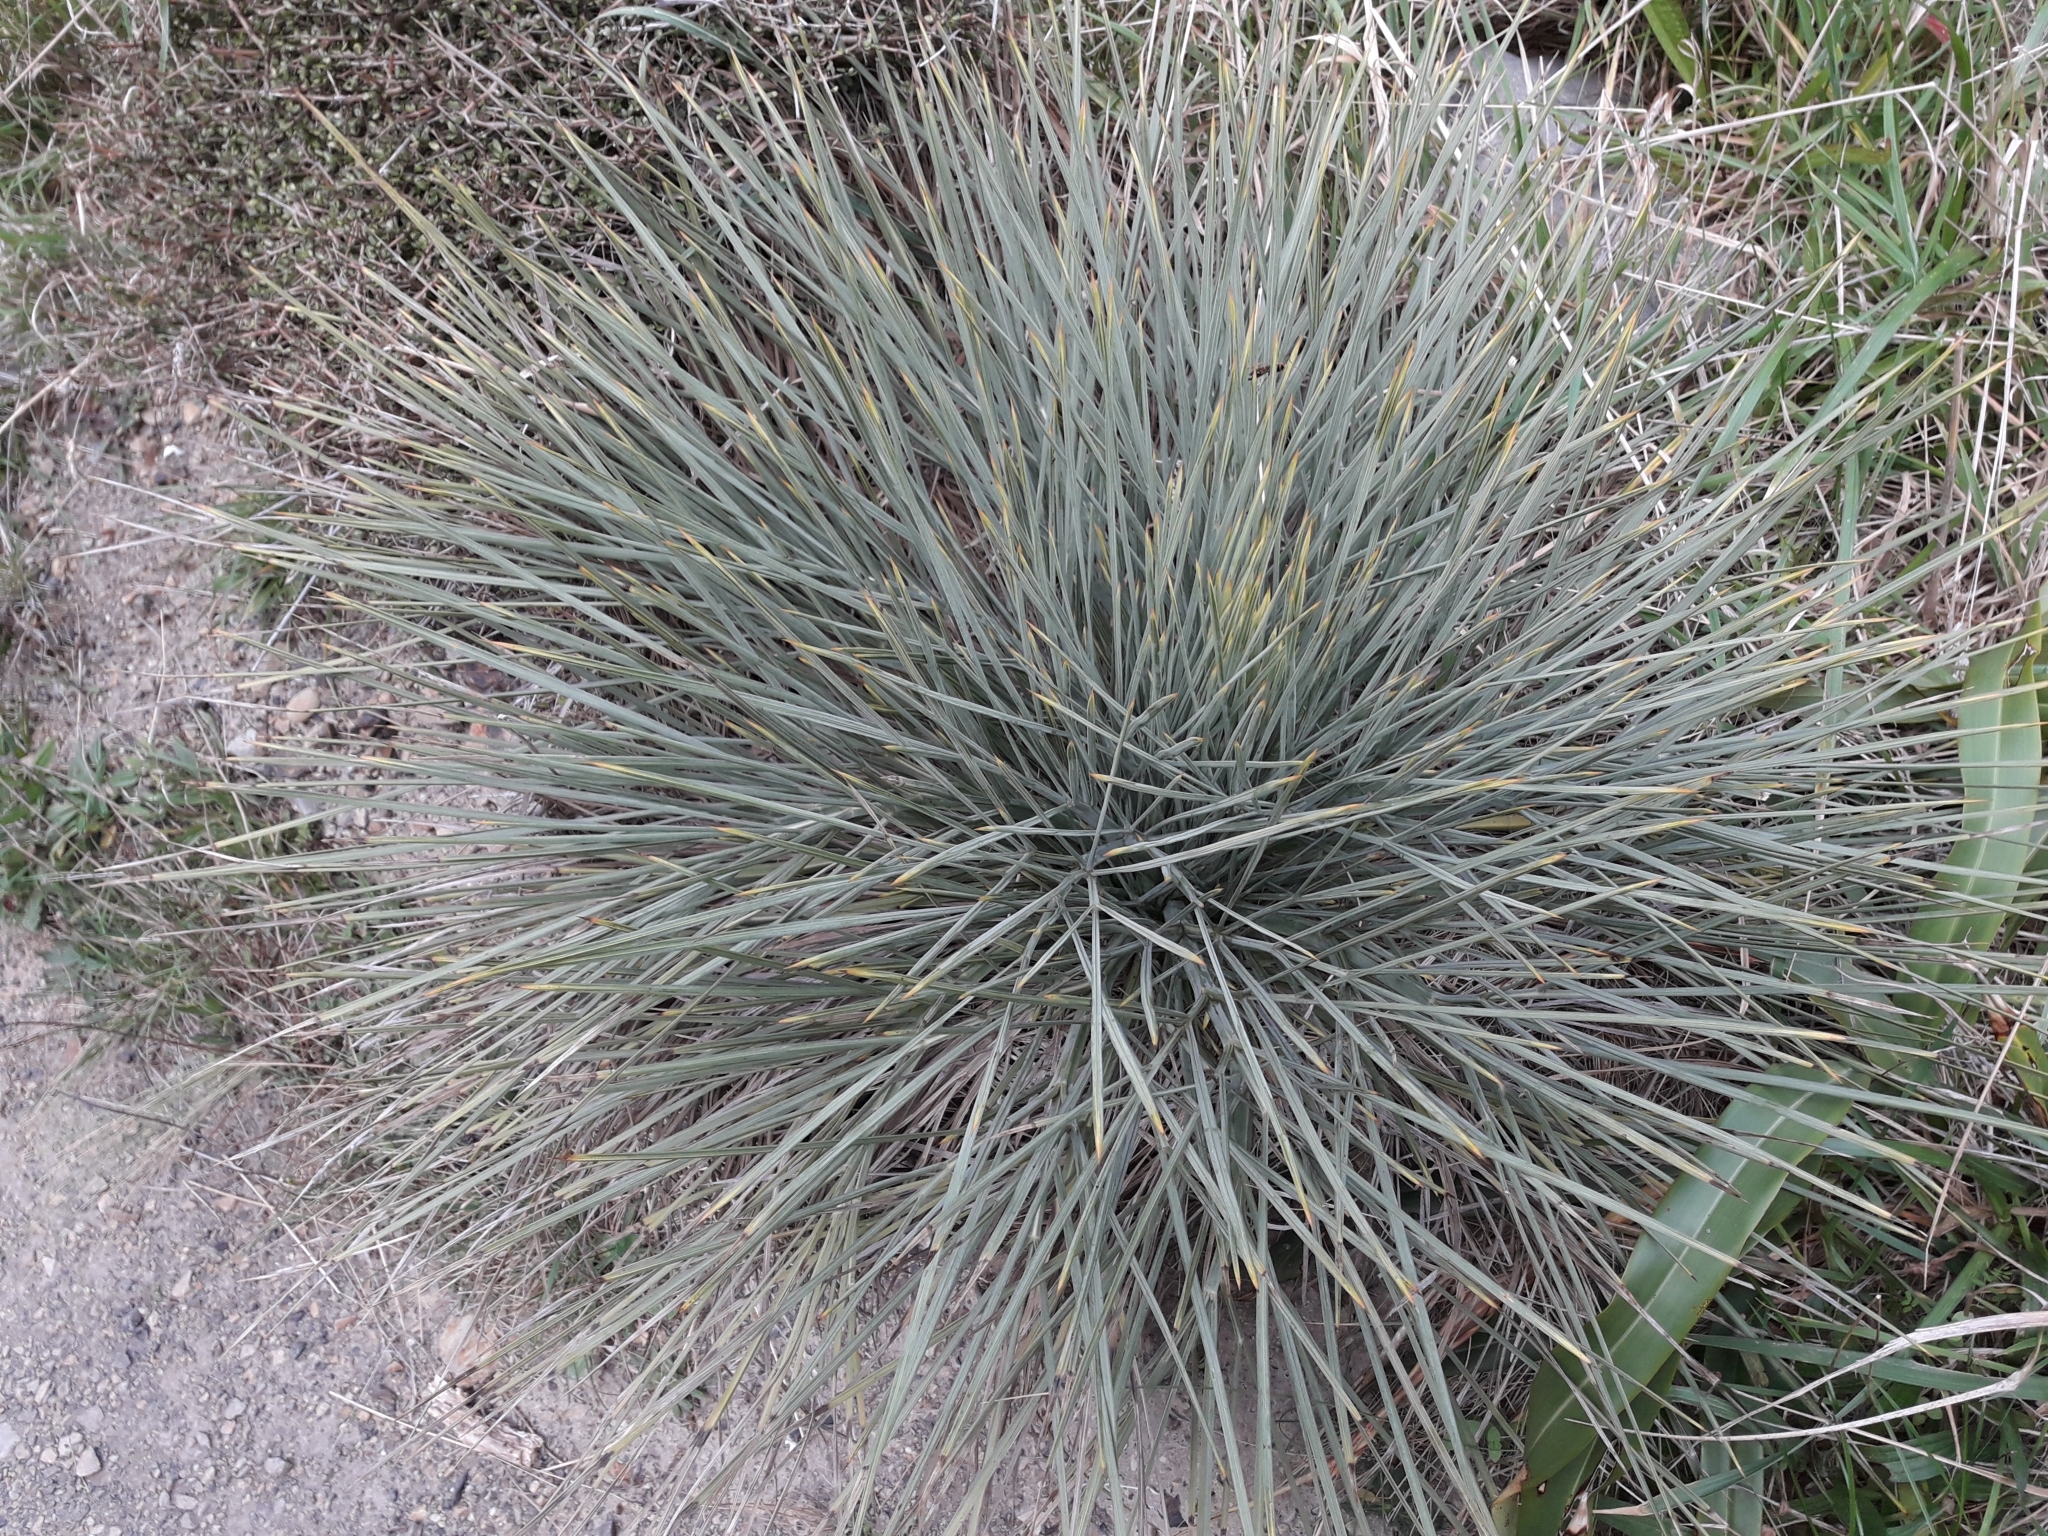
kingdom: Plantae
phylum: Tracheophyta
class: Magnoliopsida
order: Apiales
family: Apiaceae
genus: Aciphylla
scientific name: Aciphylla squarrosa
